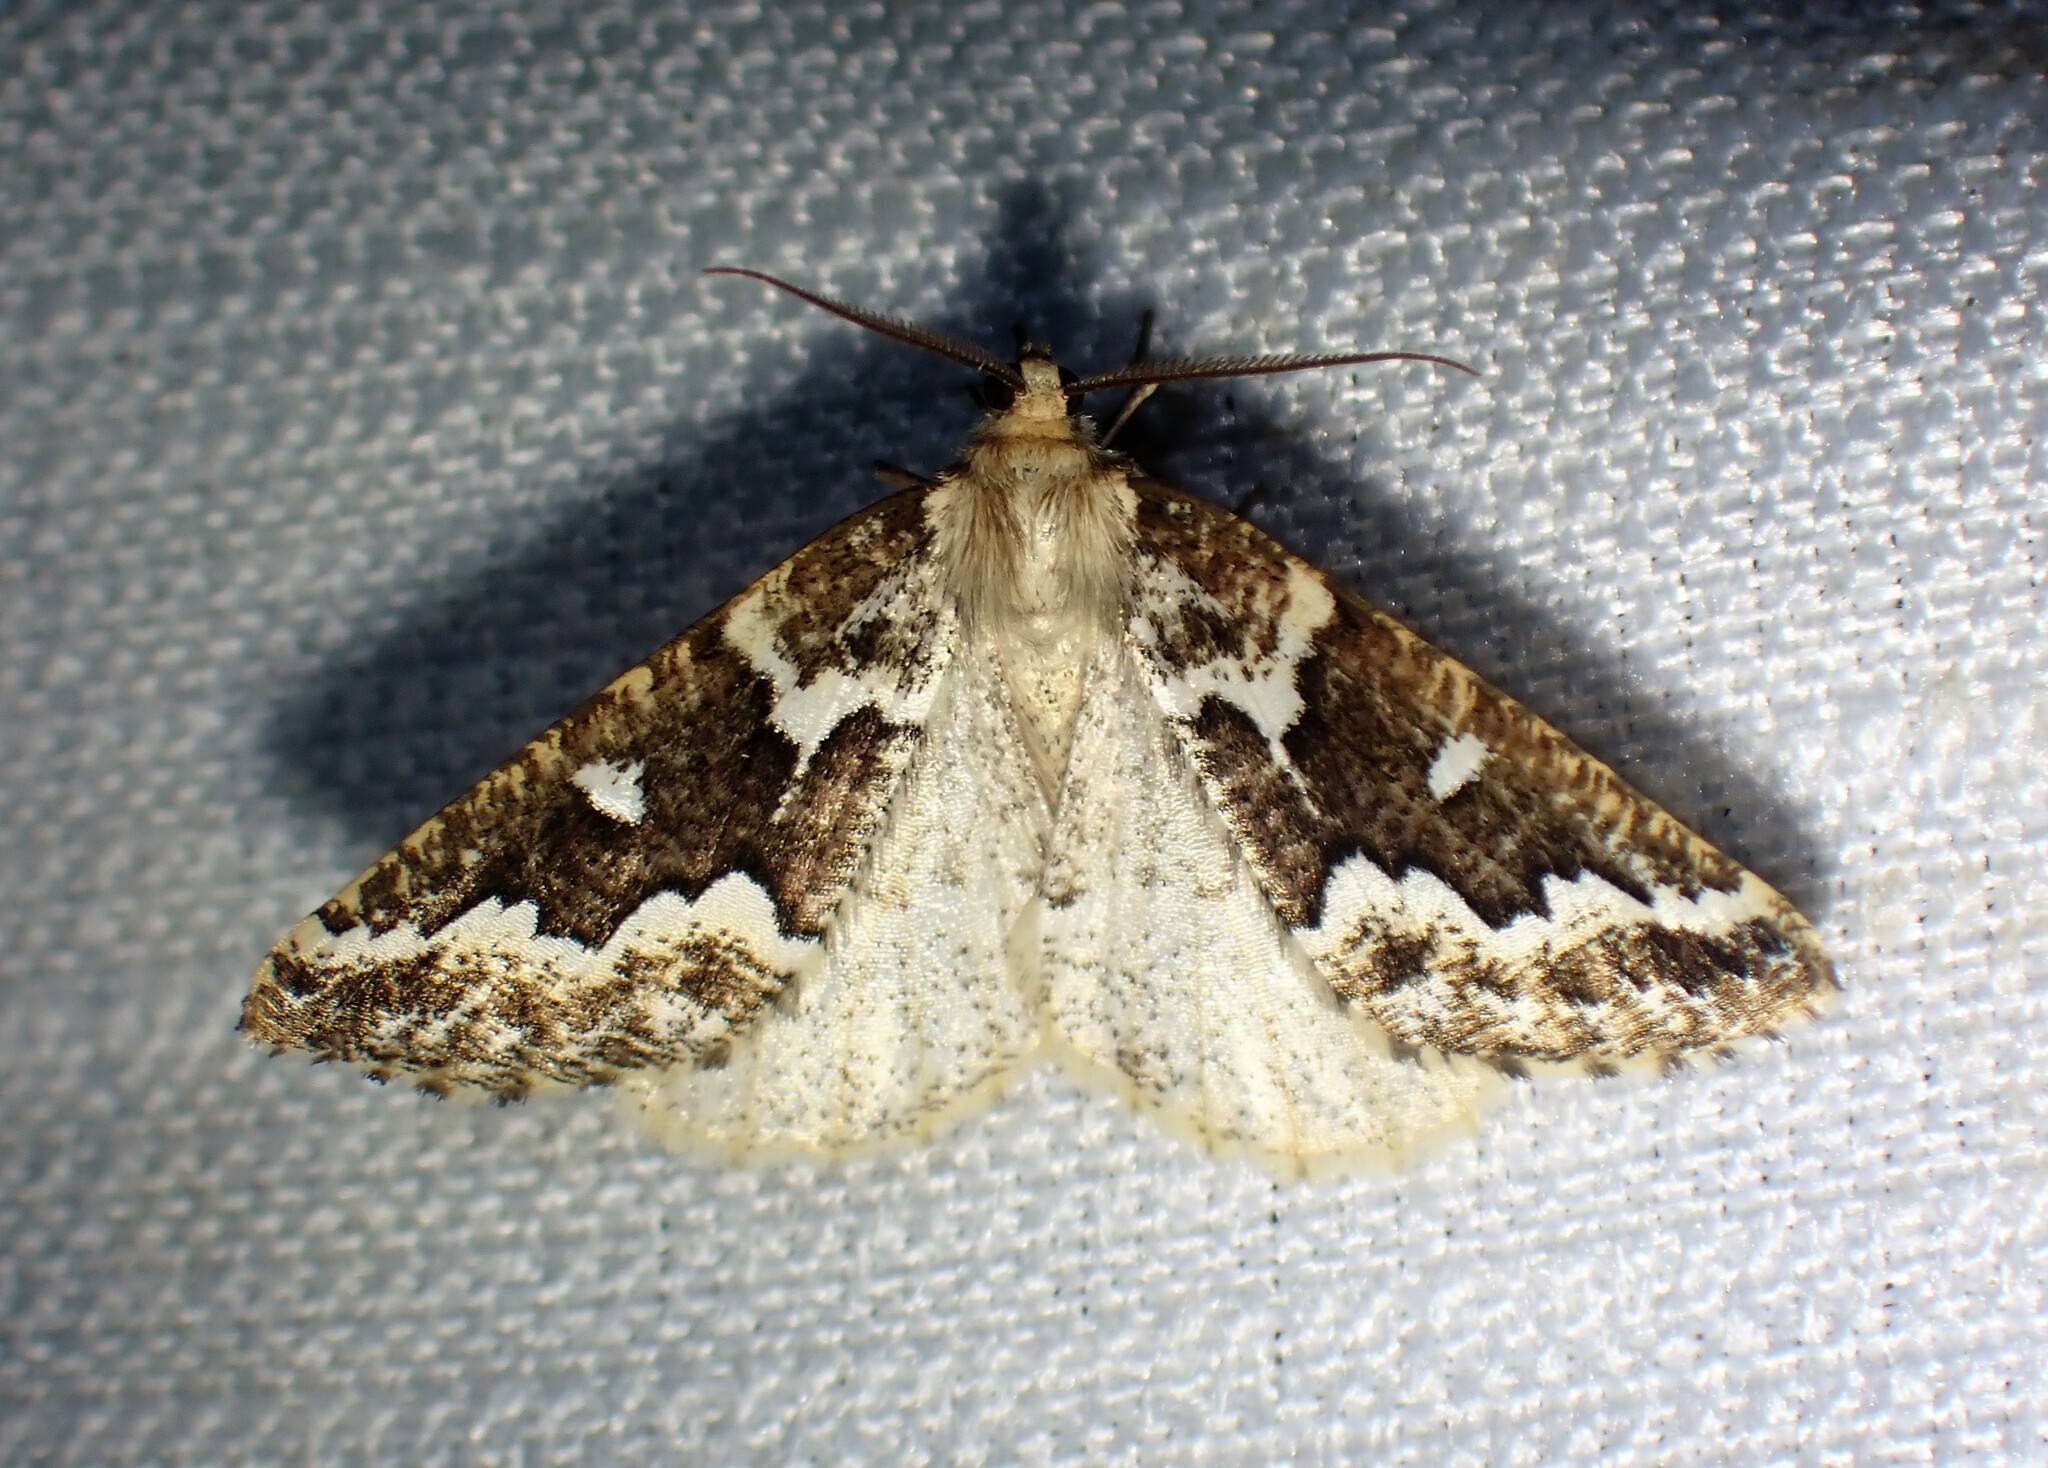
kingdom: Animalia
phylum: Arthropoda
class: Insecta
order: Lepidoptera
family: Geometridae
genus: Caripeta
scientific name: Caripeta divisata
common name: Gray spruce looper
